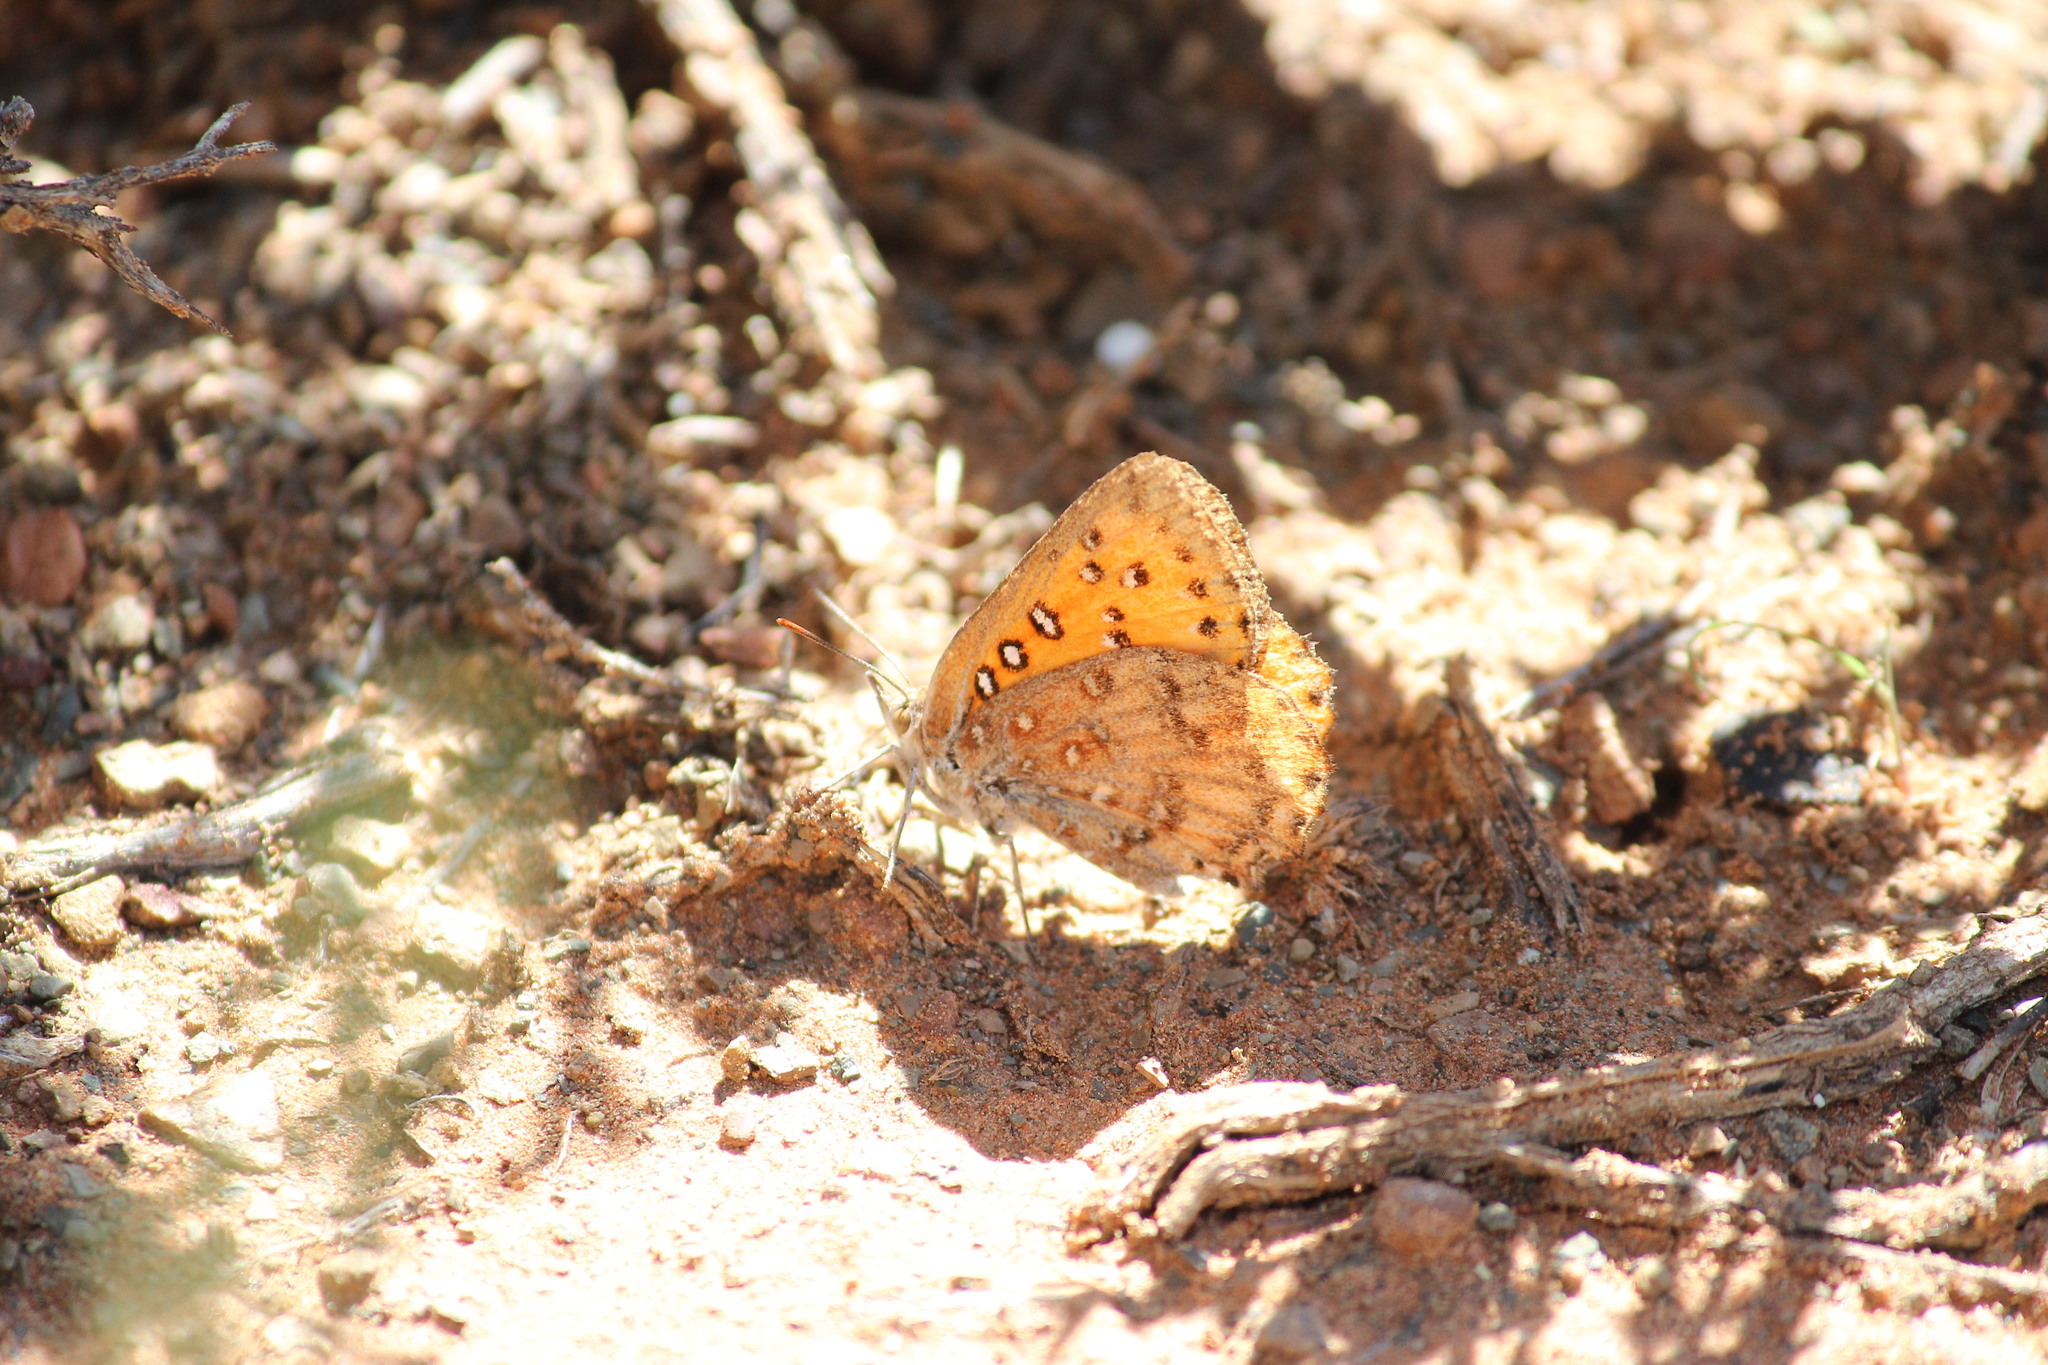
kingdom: Animalia
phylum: Arthropoda
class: Insecta
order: Lepidoptera
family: Lycaenidae
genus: Aloeides
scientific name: Aloeides damarensis
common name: Damara russet
